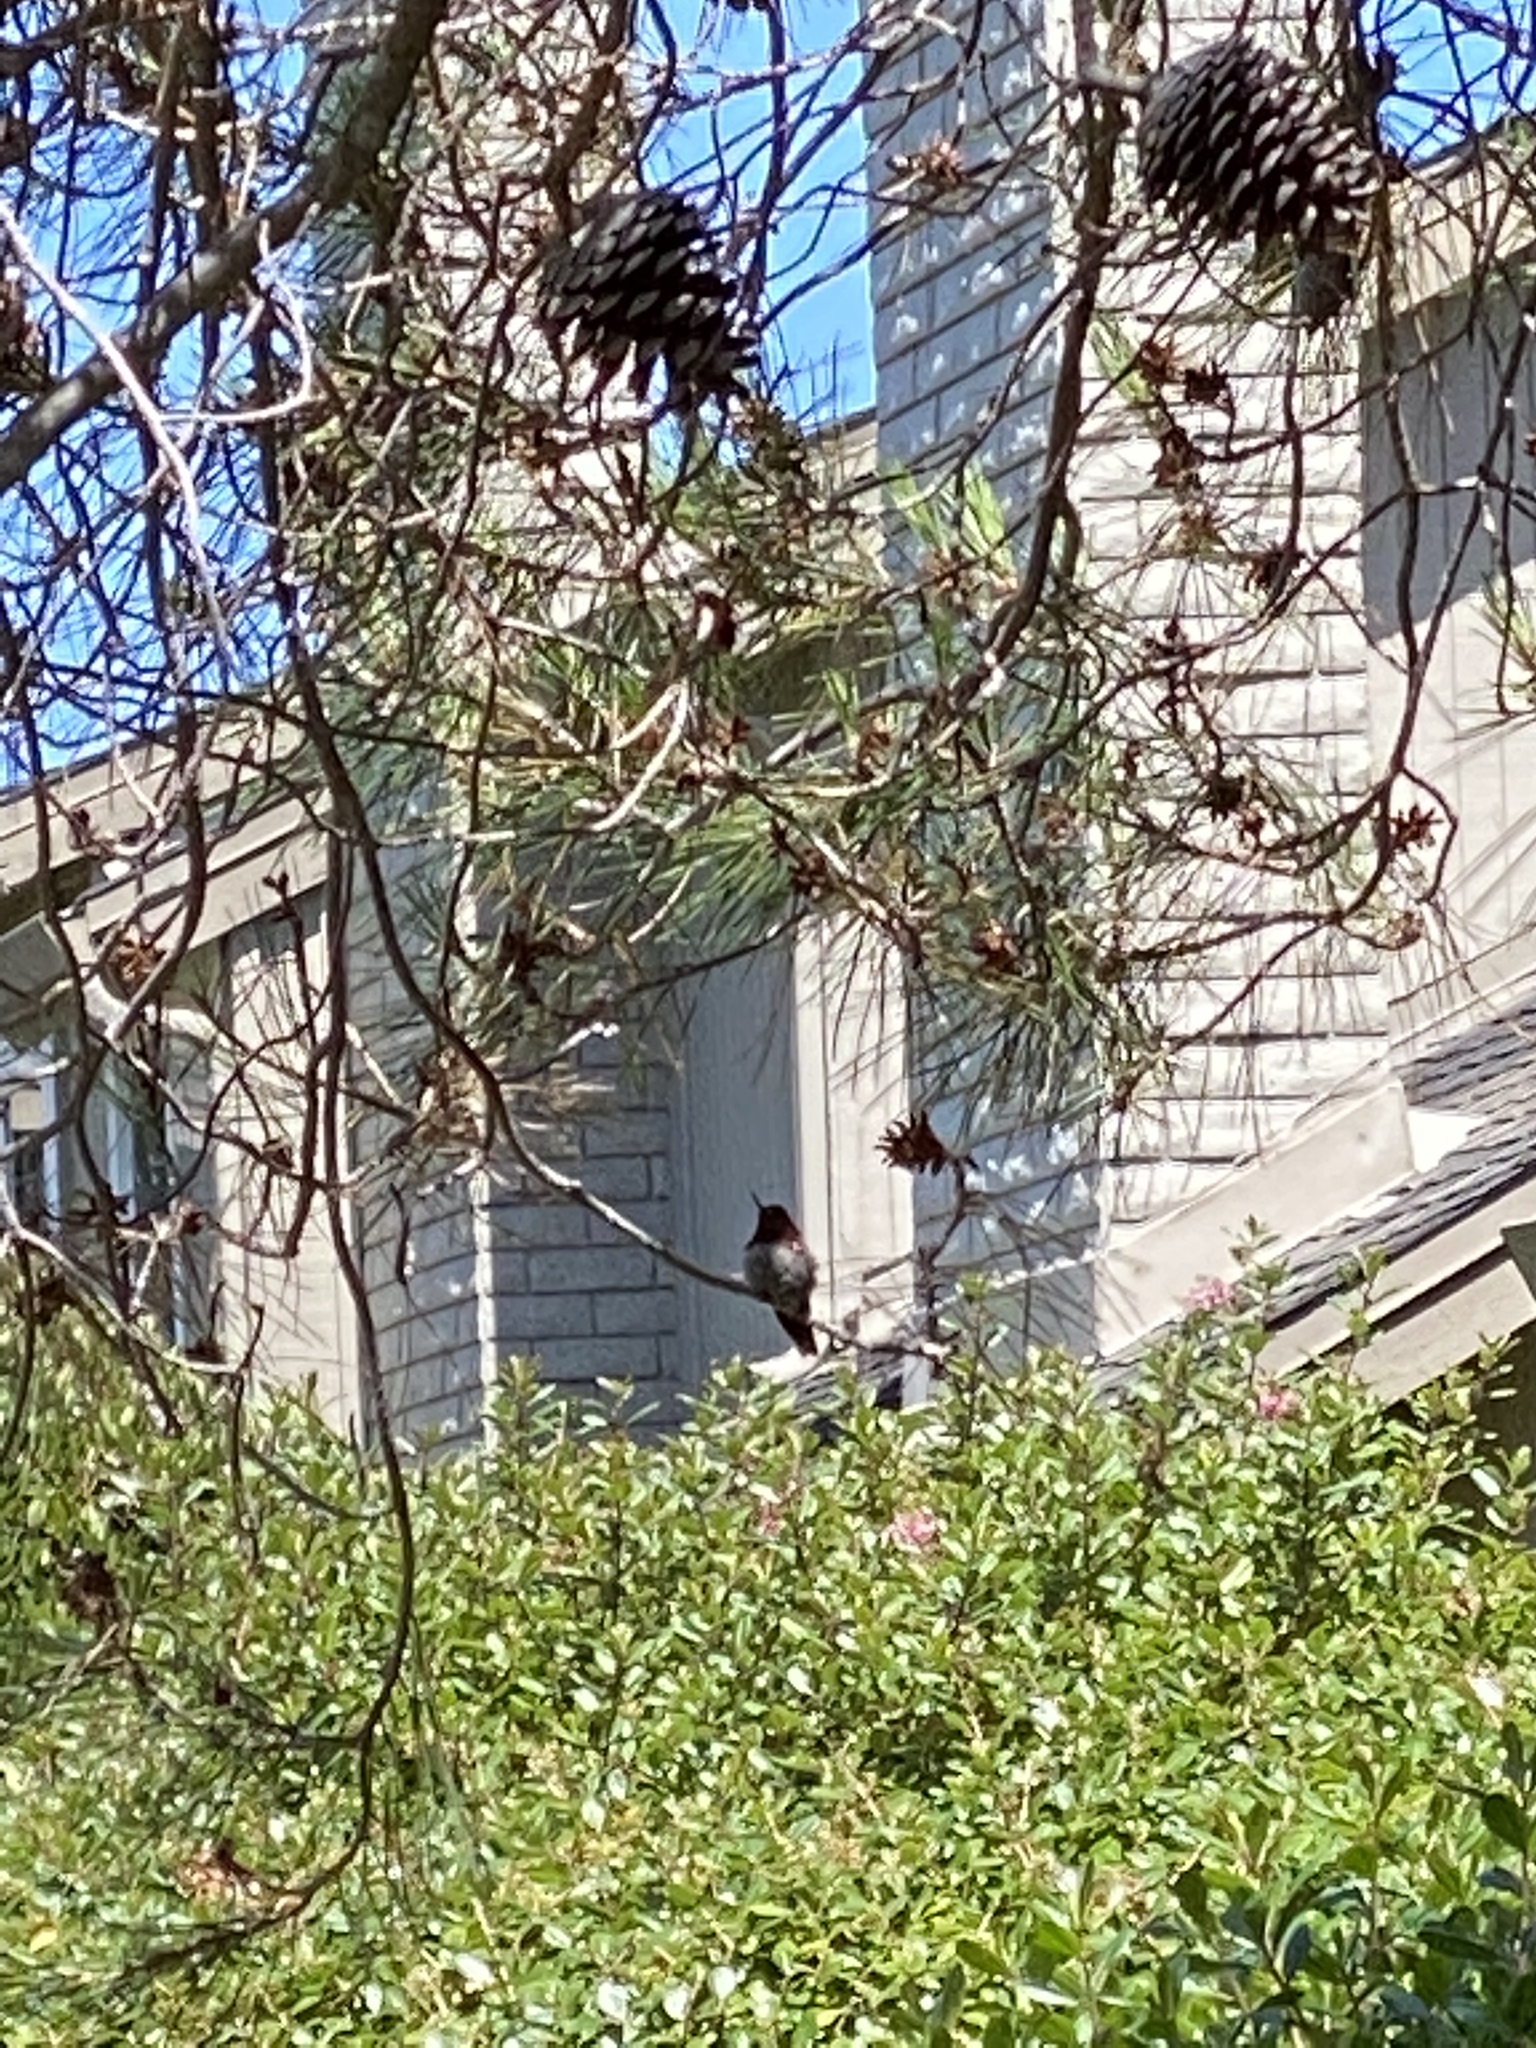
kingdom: Animalia
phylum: Chordata
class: Aves
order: Apodiformes
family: Trochilidae
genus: Calypte
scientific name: Calypte anna
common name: Anna's hummingbird
